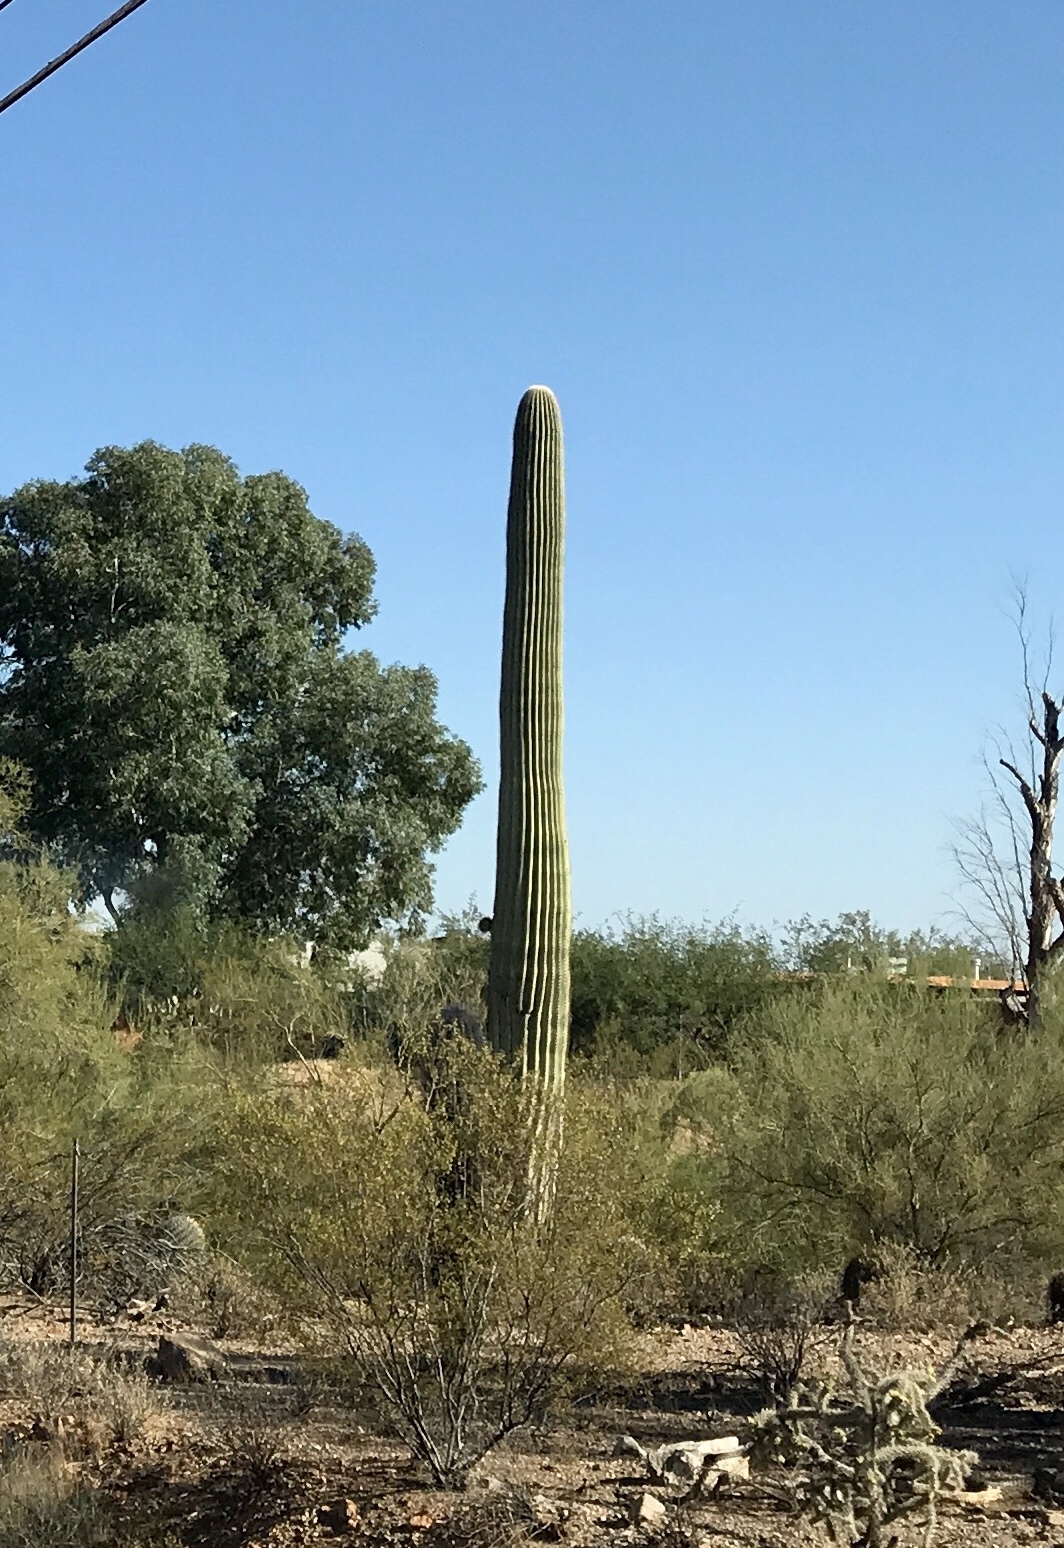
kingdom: Plantae
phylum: Tracheophyta
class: Magnoliopsida
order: Caryophyllales
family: Cactaceae
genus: Carnegiea
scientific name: Carnegiea gigantea
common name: Saguaro
